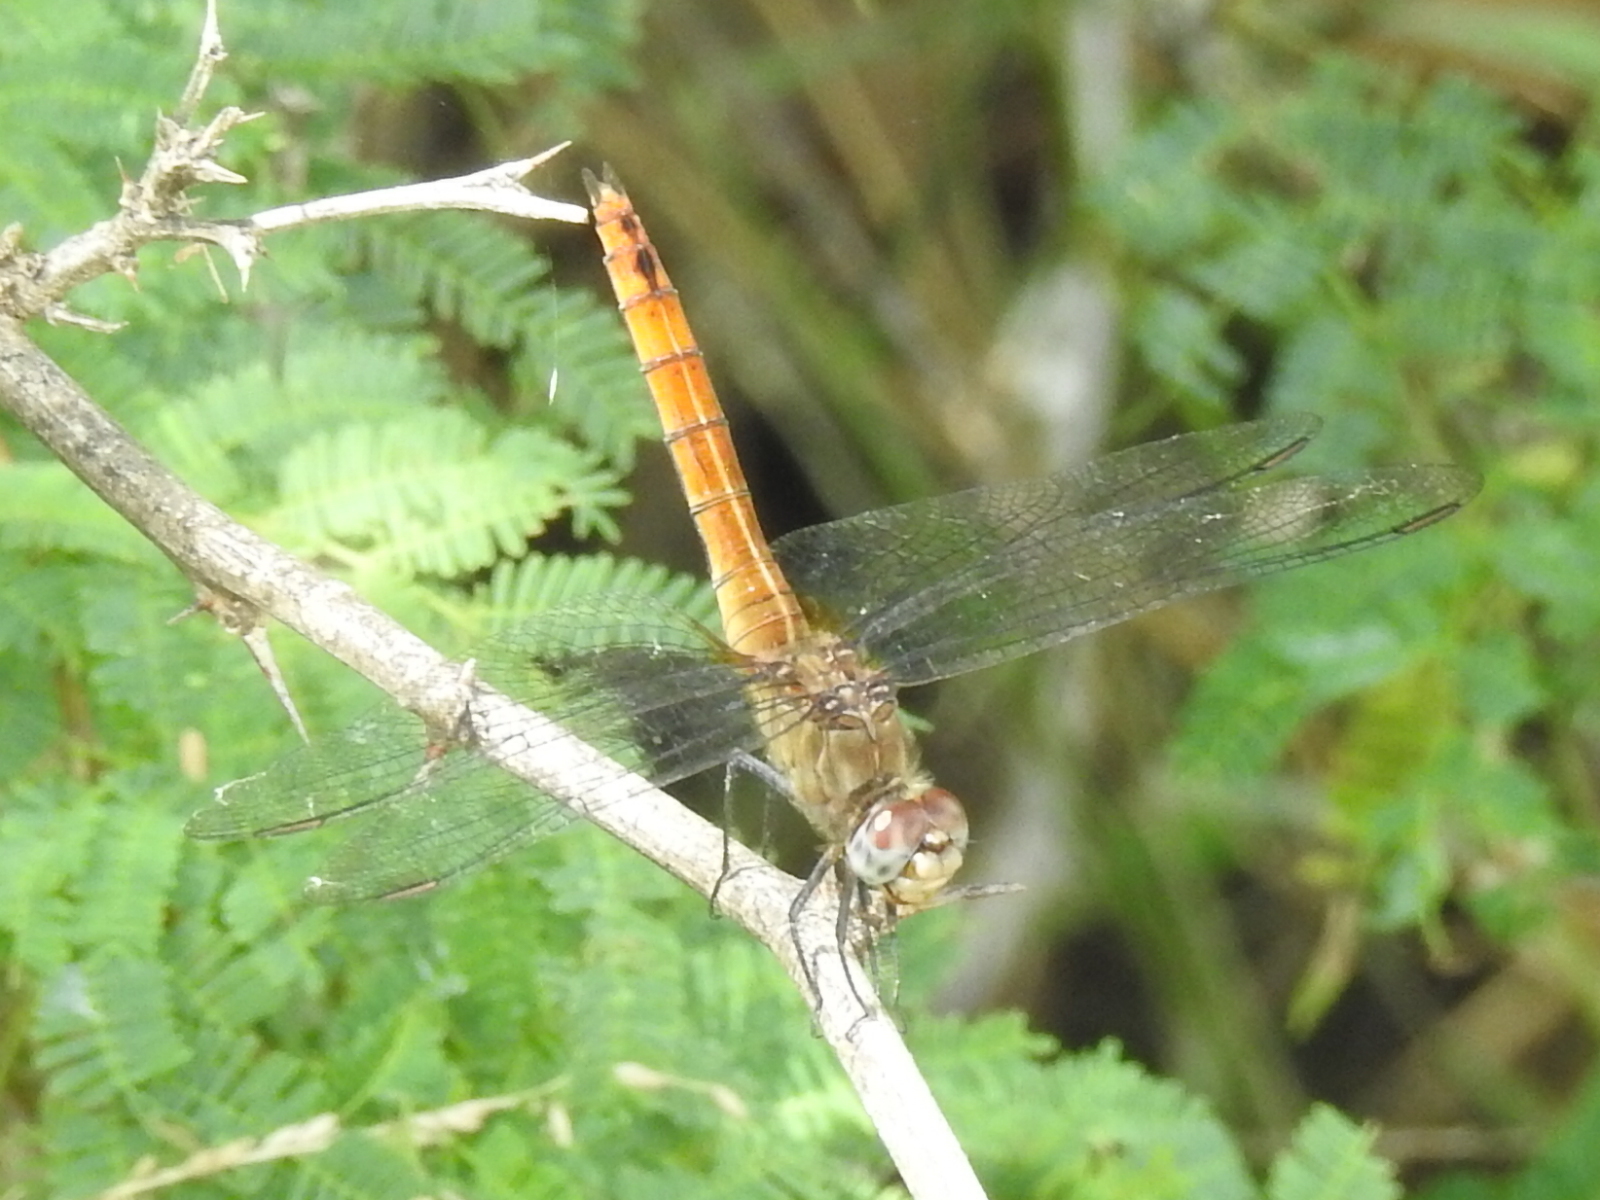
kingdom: Animalia
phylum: Arthropoda
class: Insecta
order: Odonata
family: Libellulidae
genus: Brachymesia
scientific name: Brachymesia furcata
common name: Red-taled pennant
